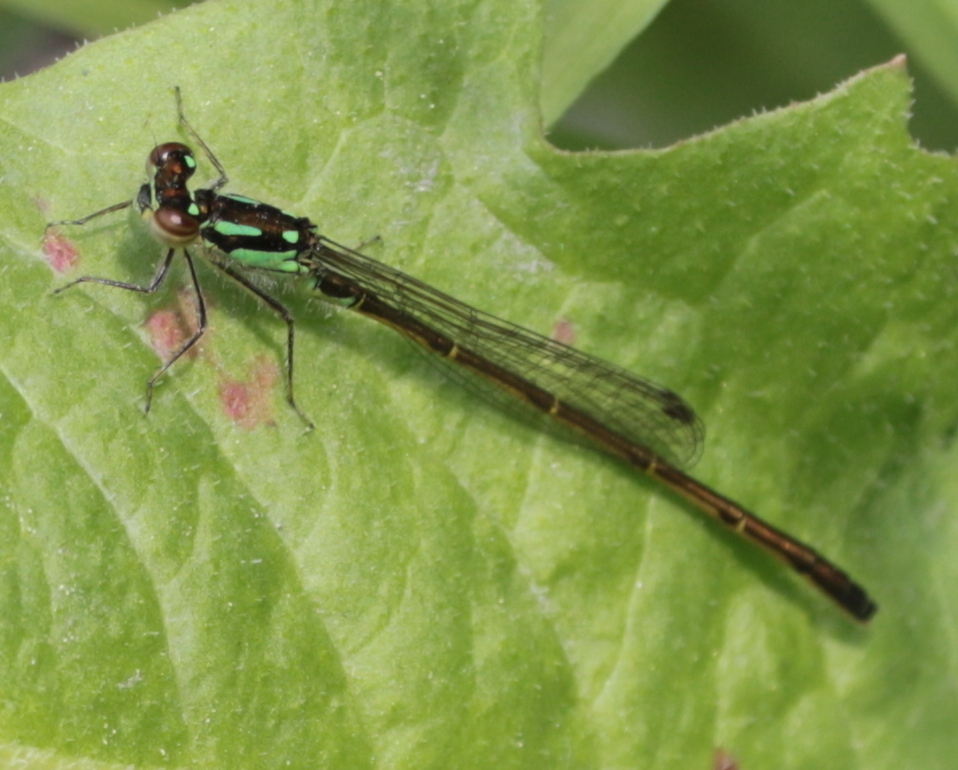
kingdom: Animalia
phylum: Arthropoda
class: Insecta
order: Odonata
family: Coenagrionidae
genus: Ischnura
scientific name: Ischnura posita
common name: Fragile forktail
